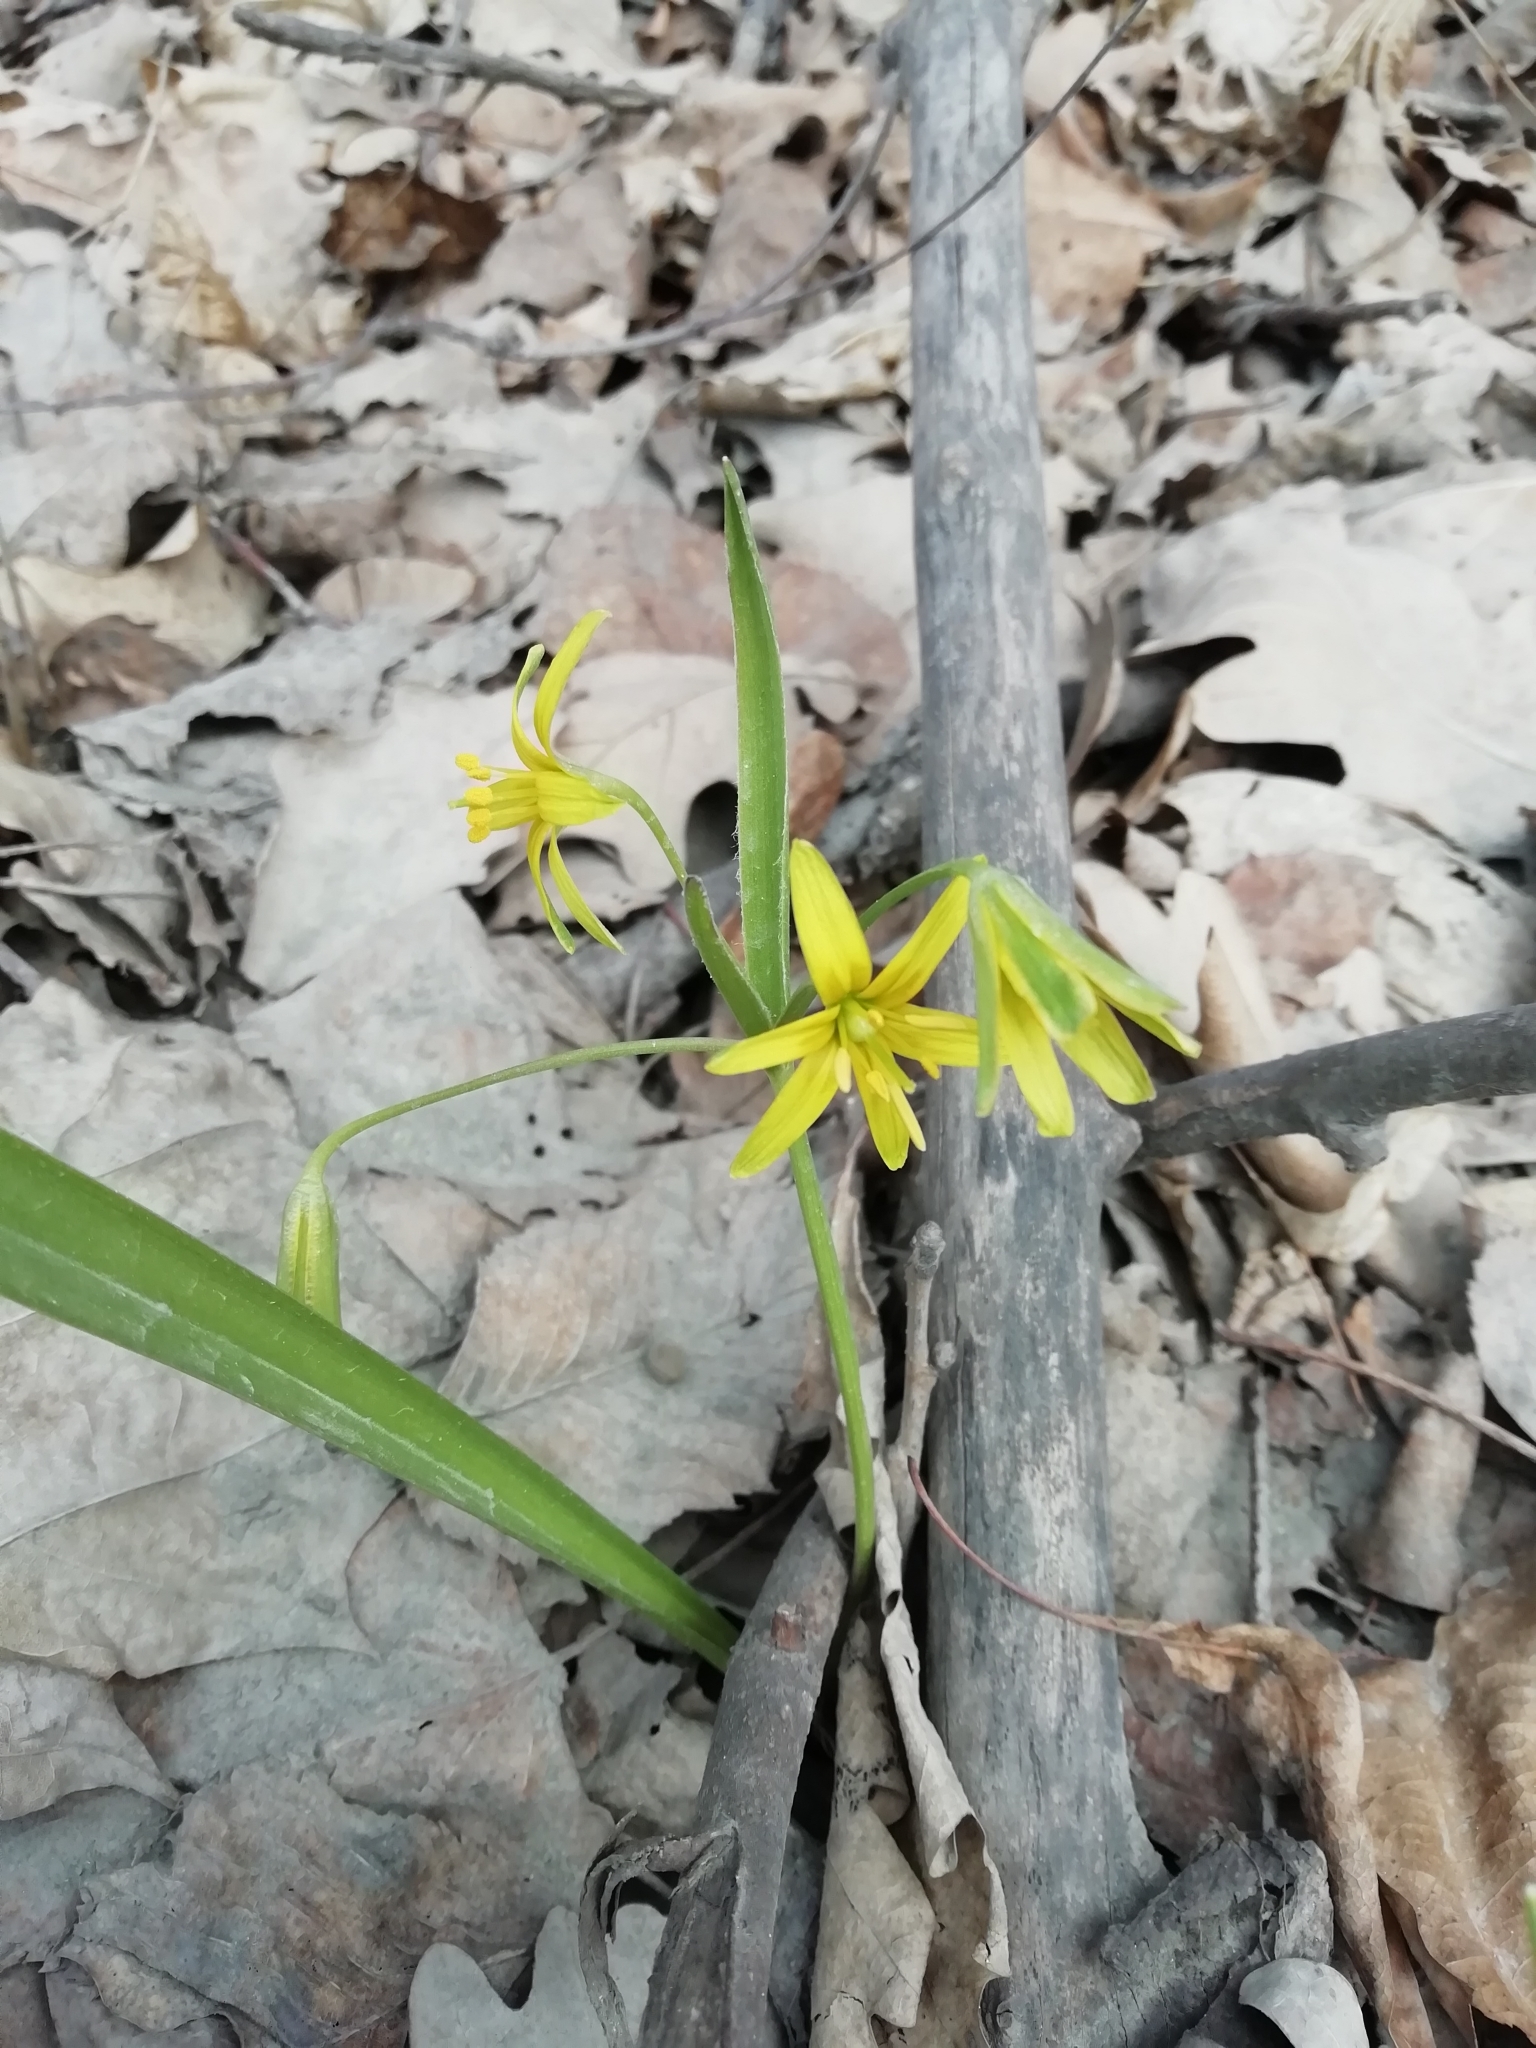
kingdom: Plantae
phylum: Tracheophyta
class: Liliopsida
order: Liliales
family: Liliaceae
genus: Gagea
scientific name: Gagea lutea
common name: Yellow star-of-bethlehem
